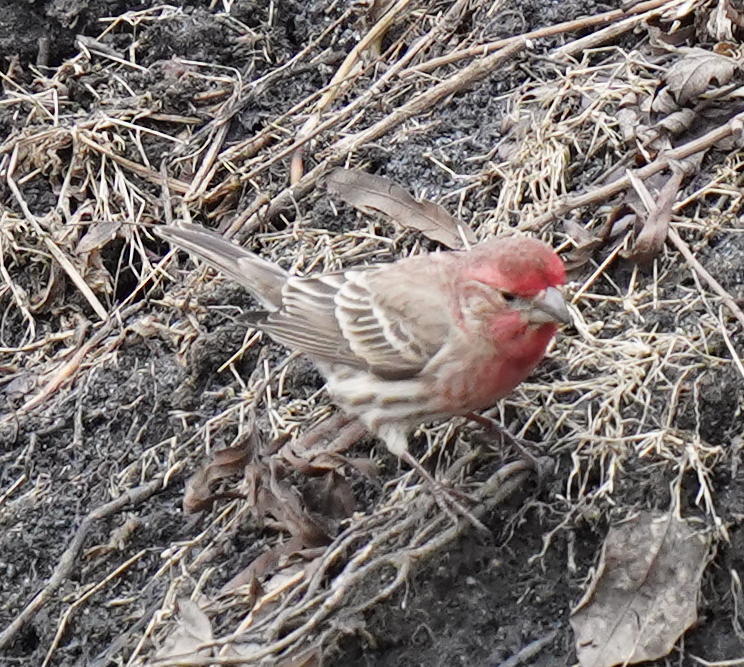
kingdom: Animalia
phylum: Chordata
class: Aves
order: Passeriformes
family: Fringillidae
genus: Haemorhous
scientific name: Haemorhous mexicanus
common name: House finch
